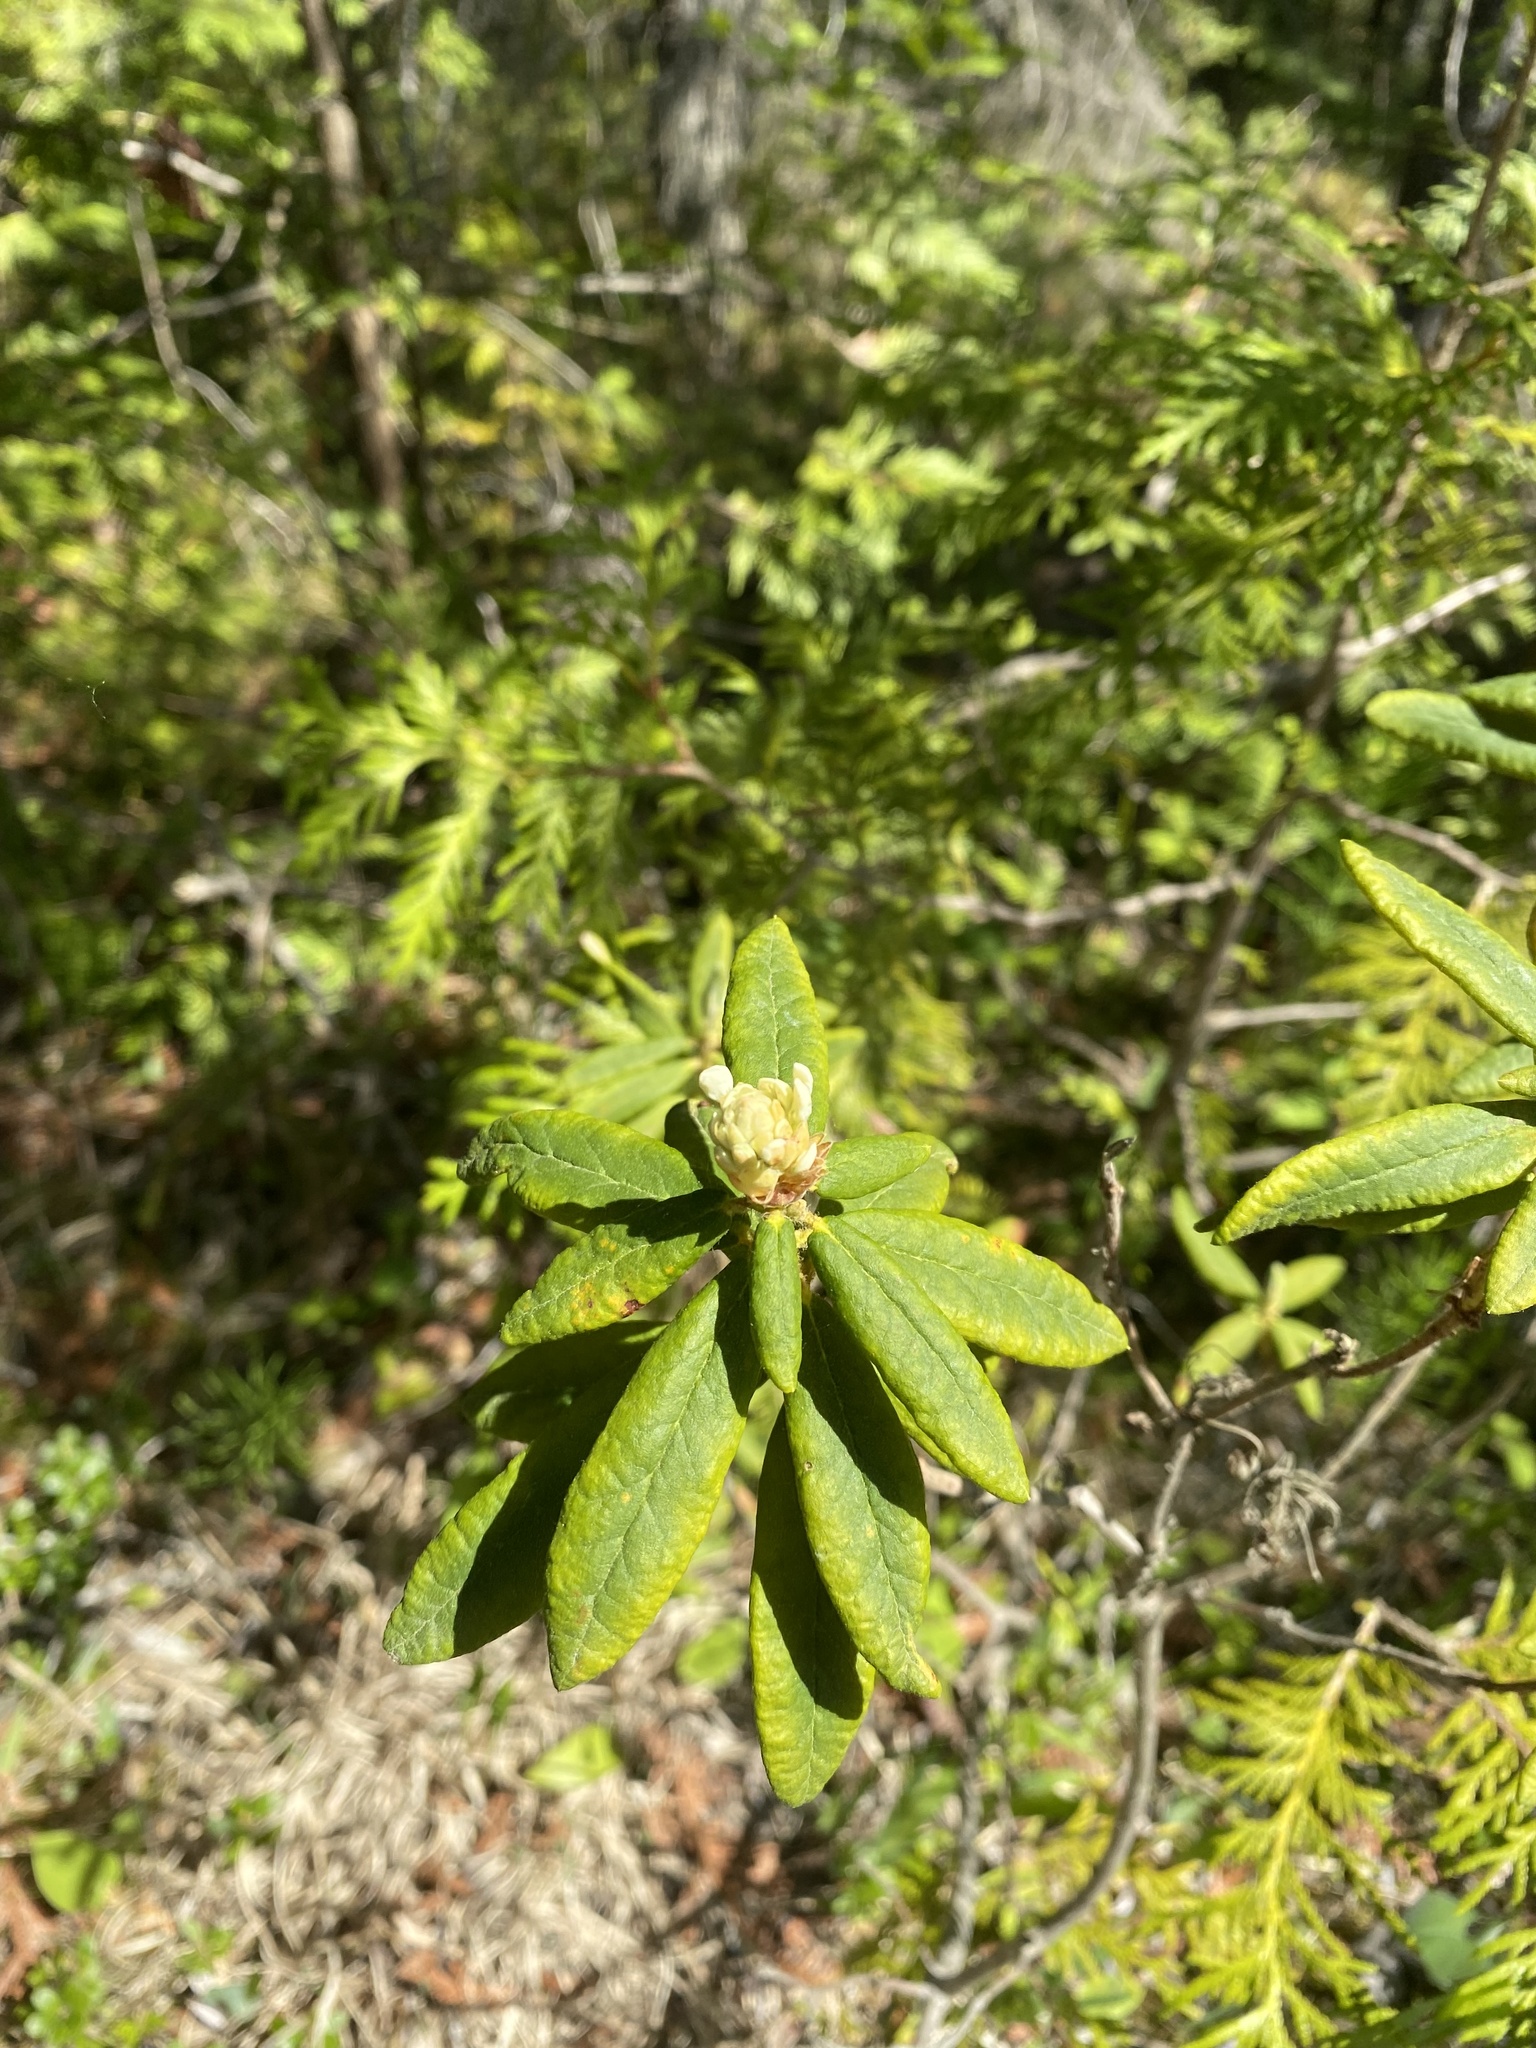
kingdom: Plantae
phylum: Tracheophyta
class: Magnoliopsida
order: Ericales
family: Ericaceae
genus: Rhododendron
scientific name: Rhododendron groenlandicum
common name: Bog labrador tea
